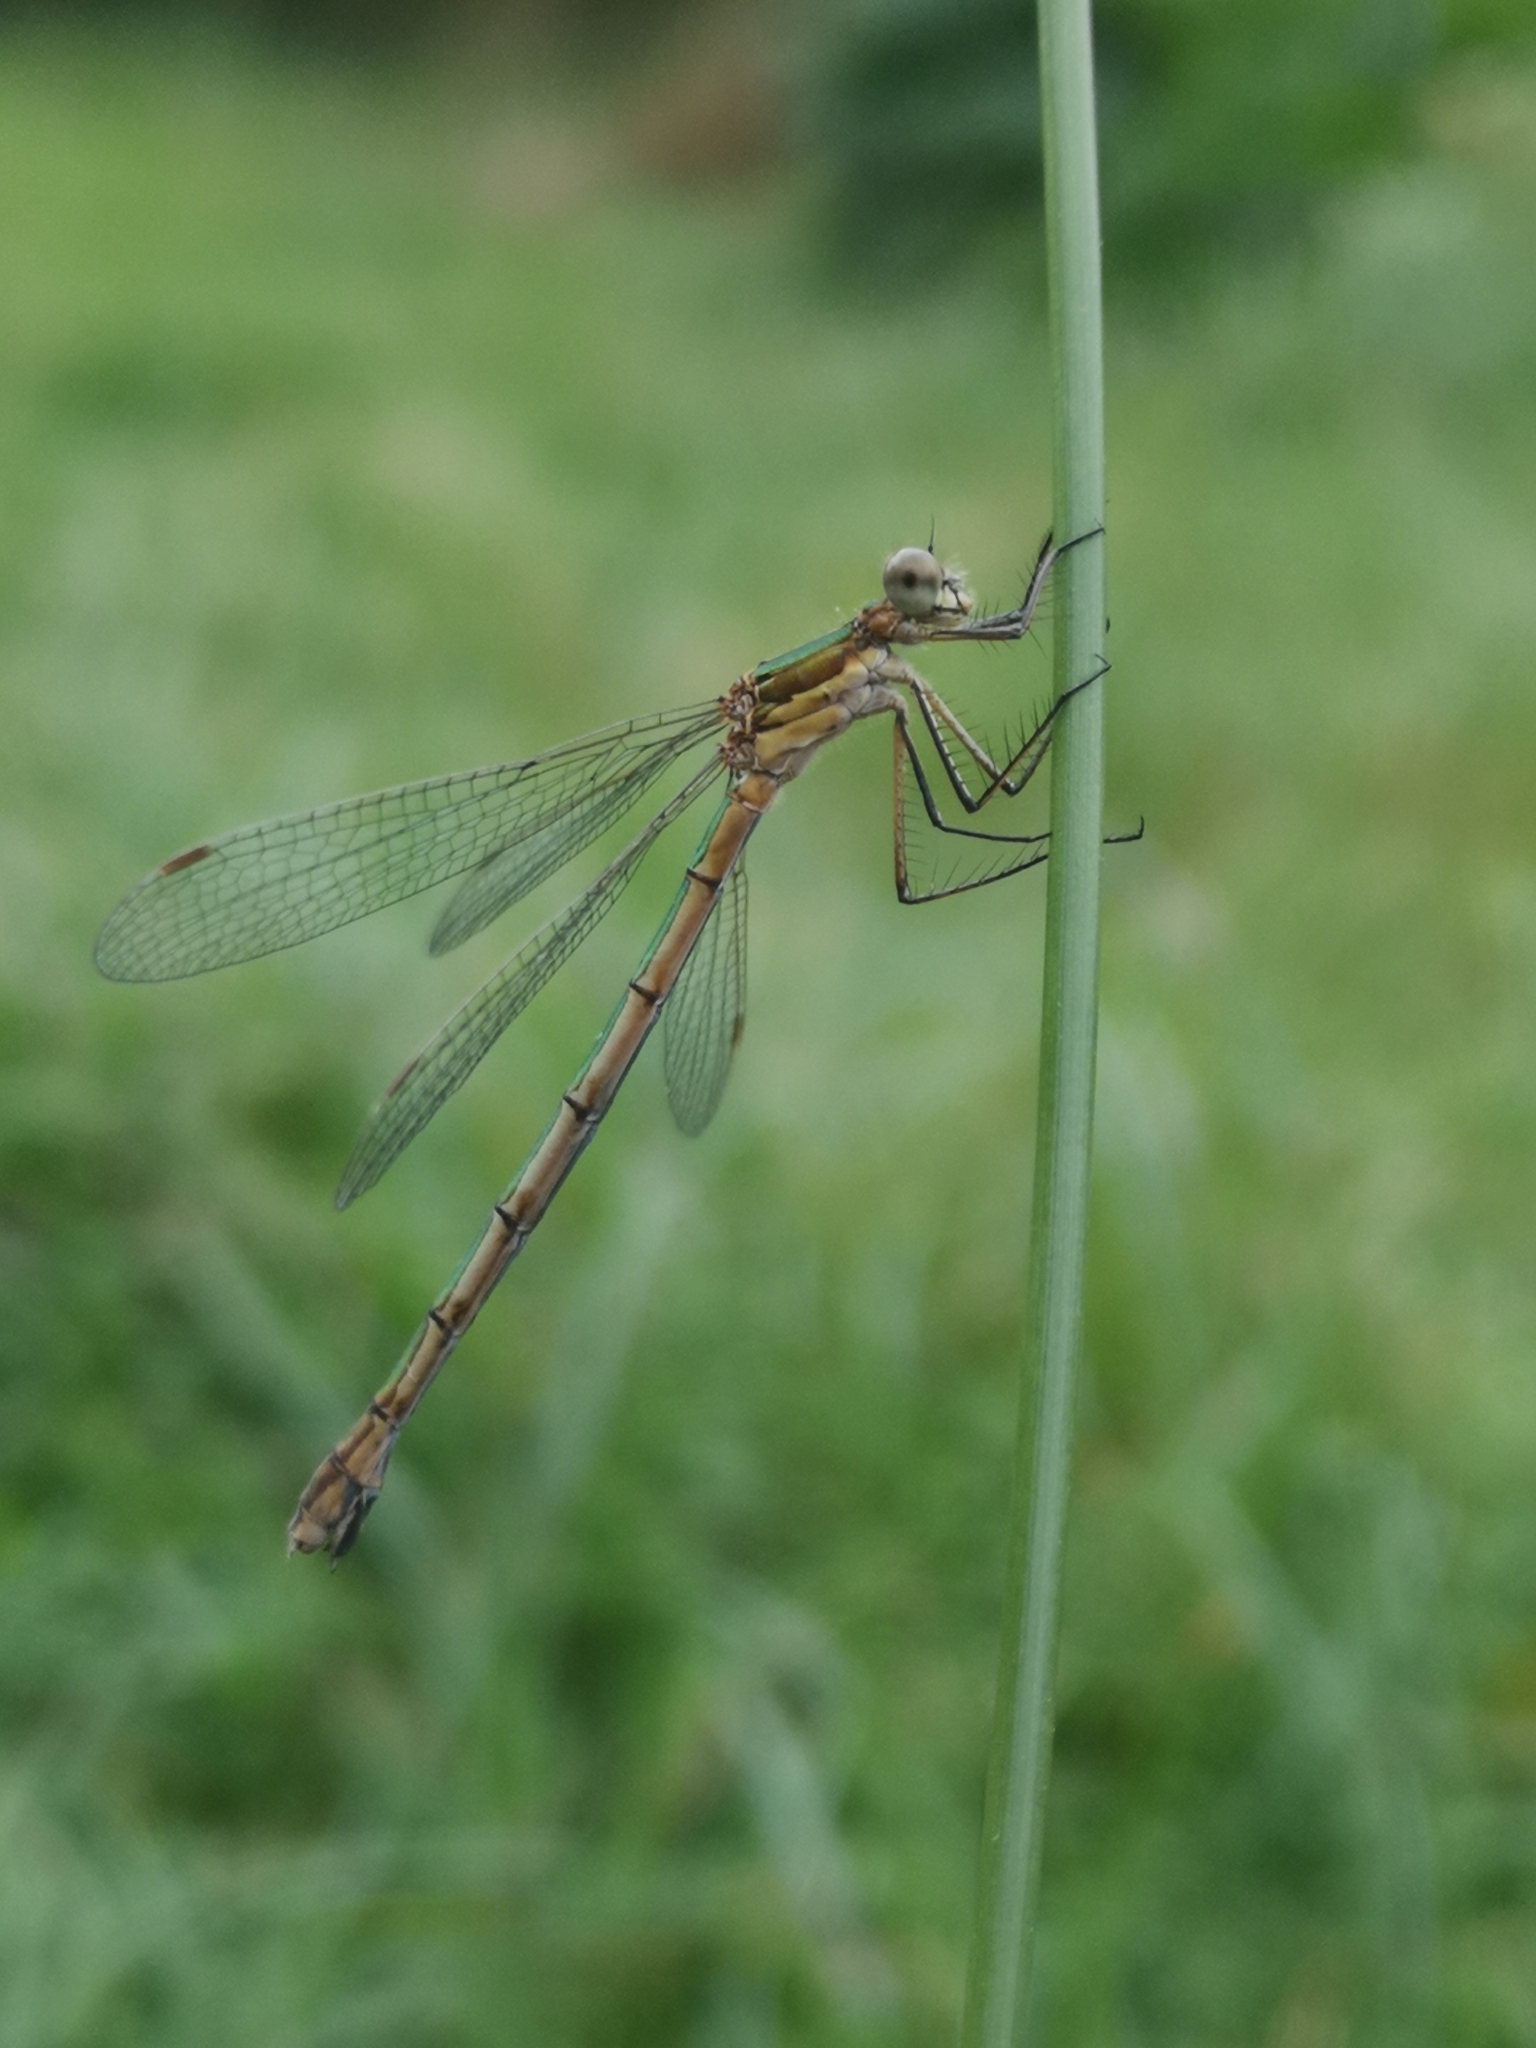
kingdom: Animalia
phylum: Arthropoda
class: Insecta
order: Odonata
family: Lestidae
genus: Lestes
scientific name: Lestes virens
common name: Small emerald spreadwing
